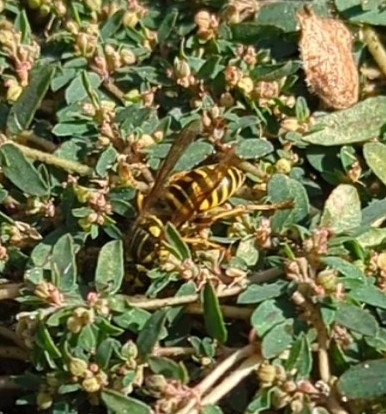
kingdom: Animalia
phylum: Arthropoda
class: Insecta
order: Hymenoptera
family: Vespidae
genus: Vespula
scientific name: Vespula squamosa
